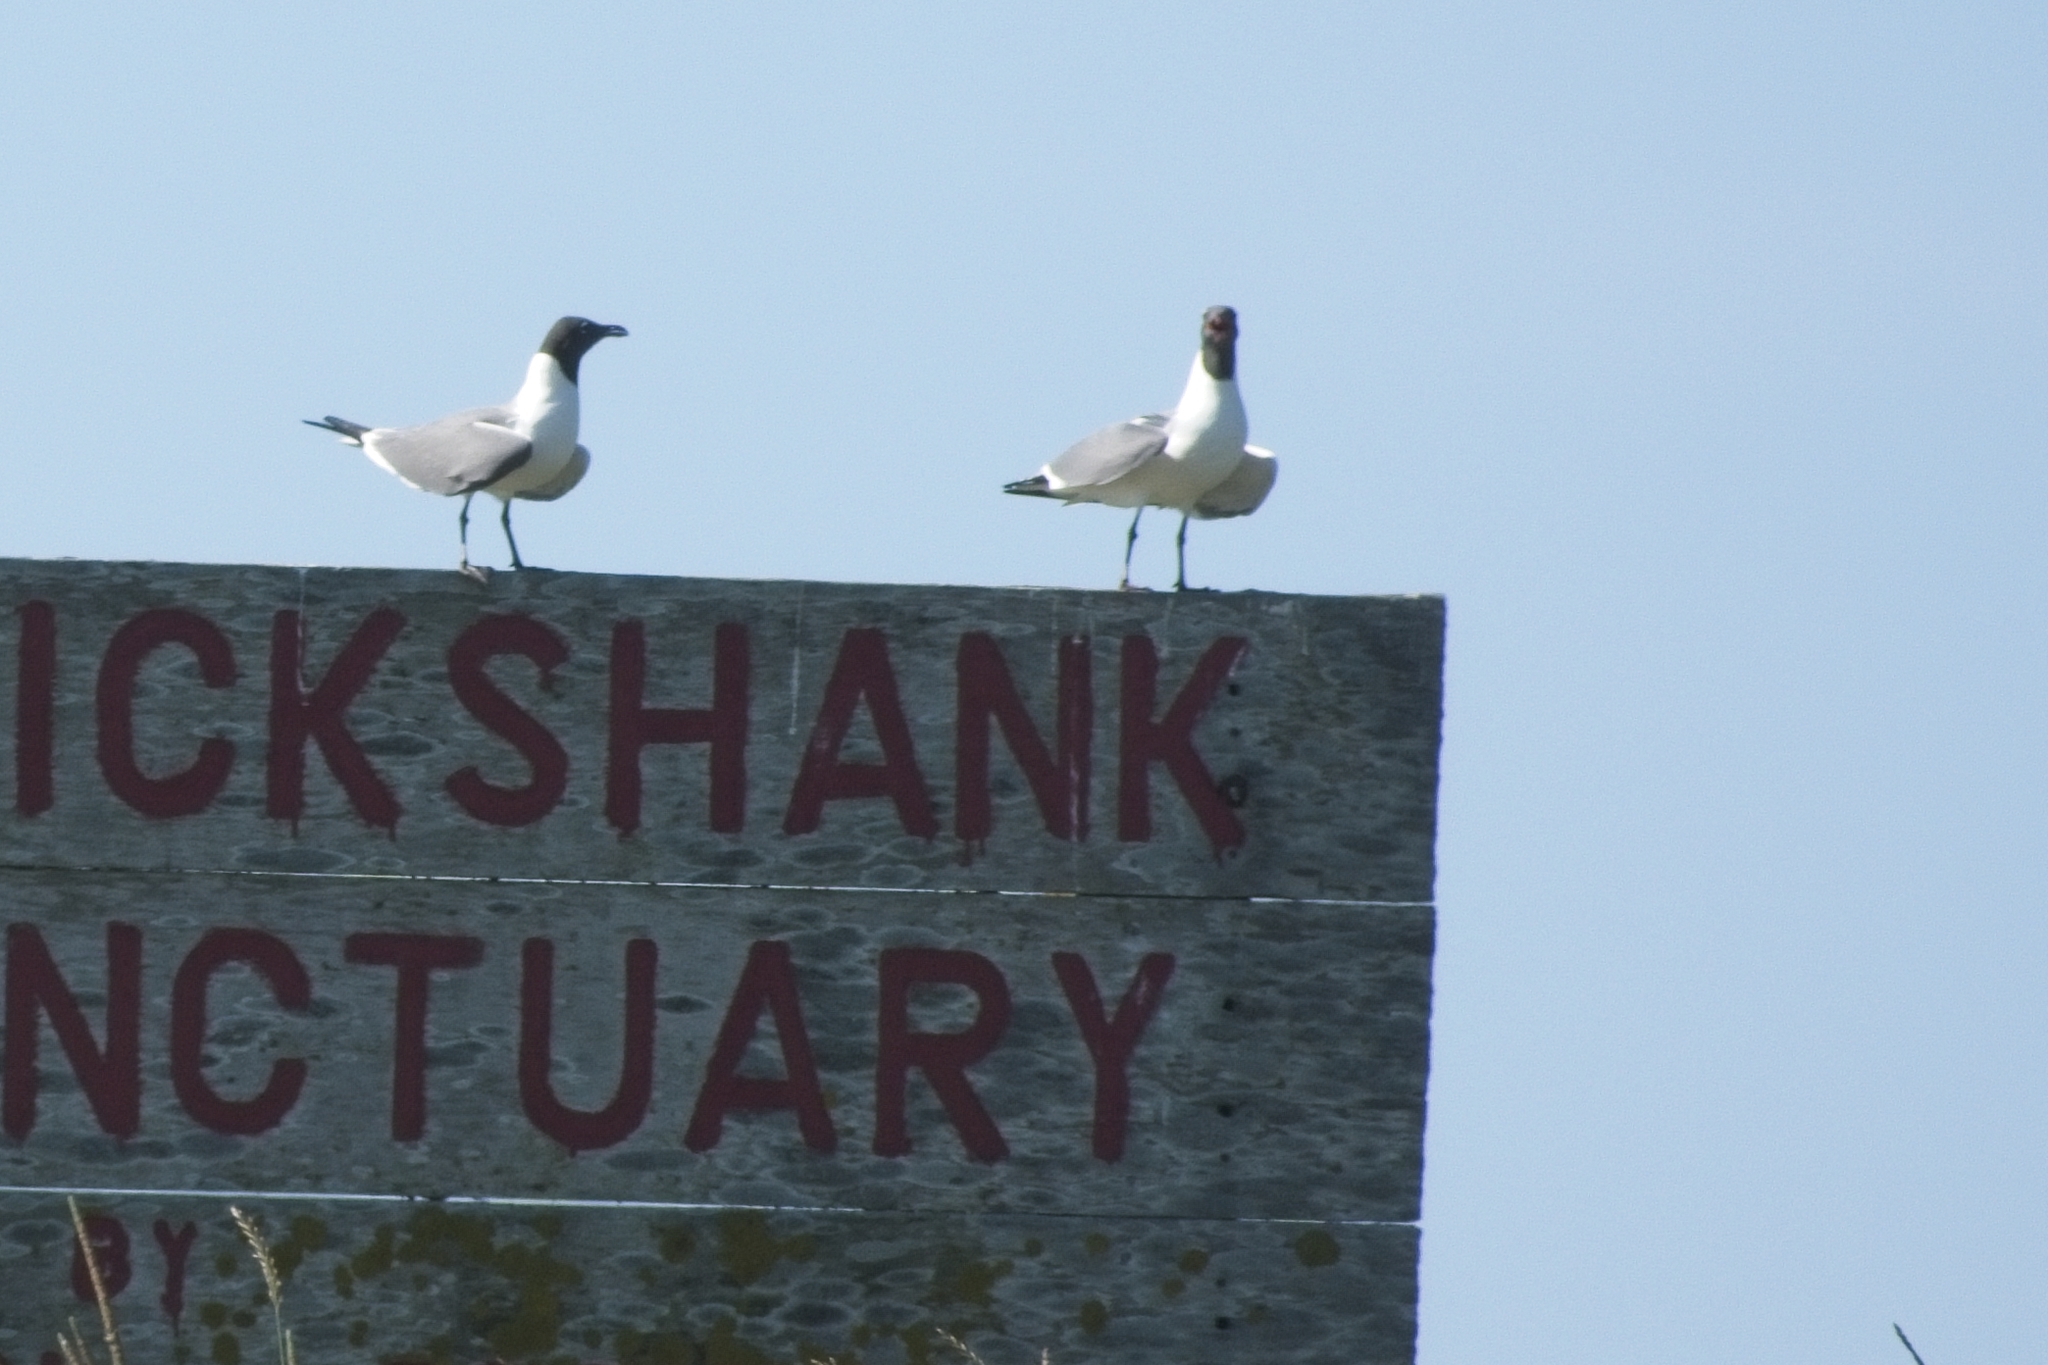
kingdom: Animalia
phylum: Chordata
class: Aves
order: Charadriiformes
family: Laridae
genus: Leucophaeus
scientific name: Leucophaeus atricilla
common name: Laughing gull
